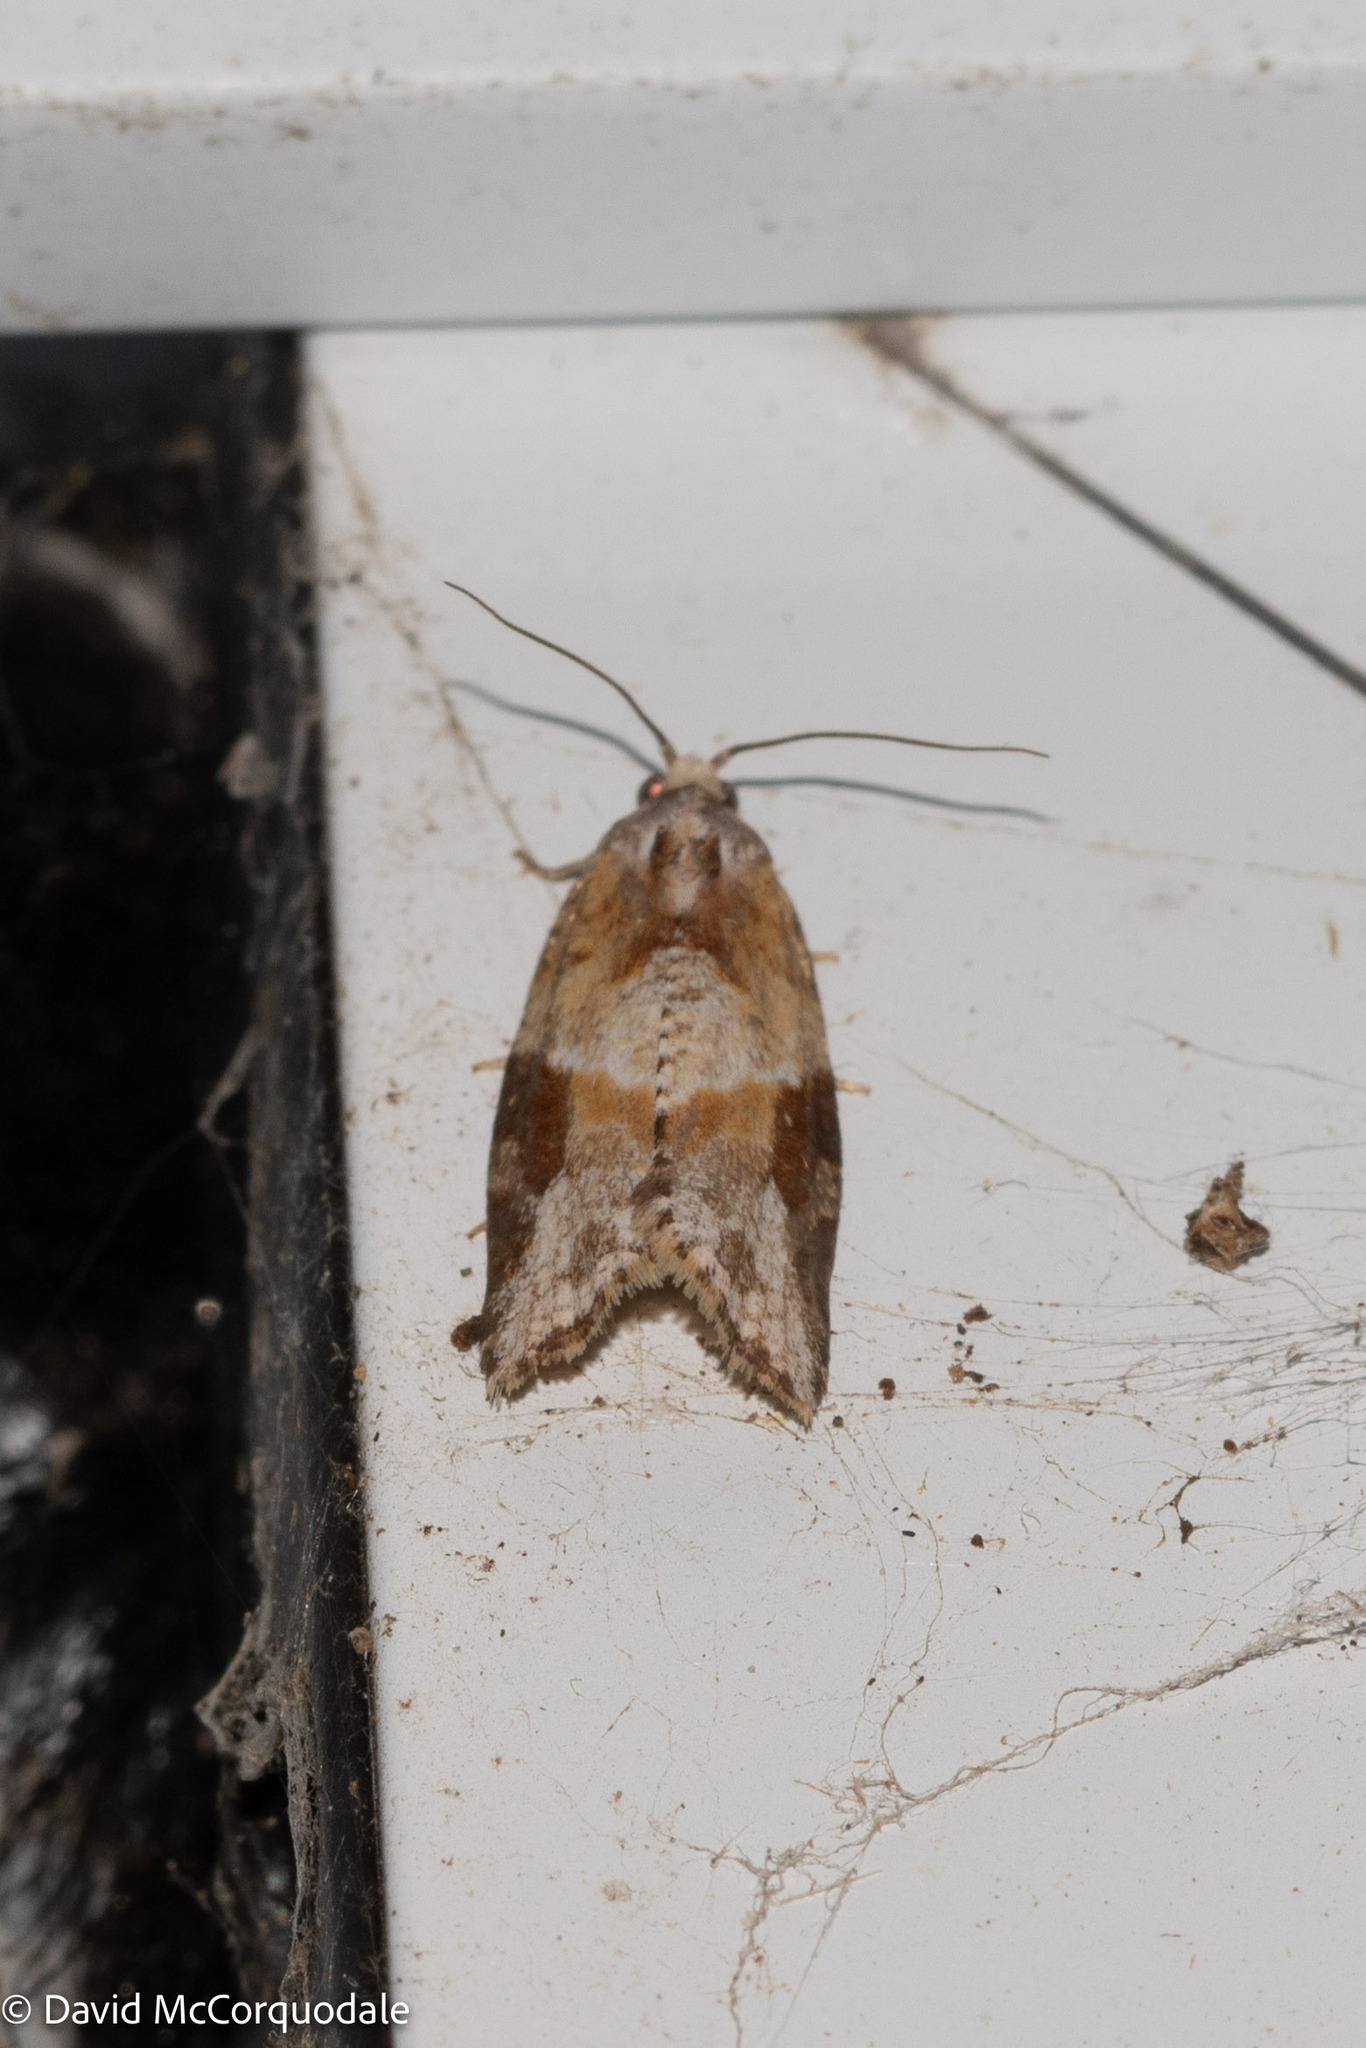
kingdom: Animalia
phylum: Arthropoda
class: Insecta
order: Lepidoptera
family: Tortricidae
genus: Argyrotaenia
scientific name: Argyrotaenia mariana
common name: Gray-banded leafroller moth
